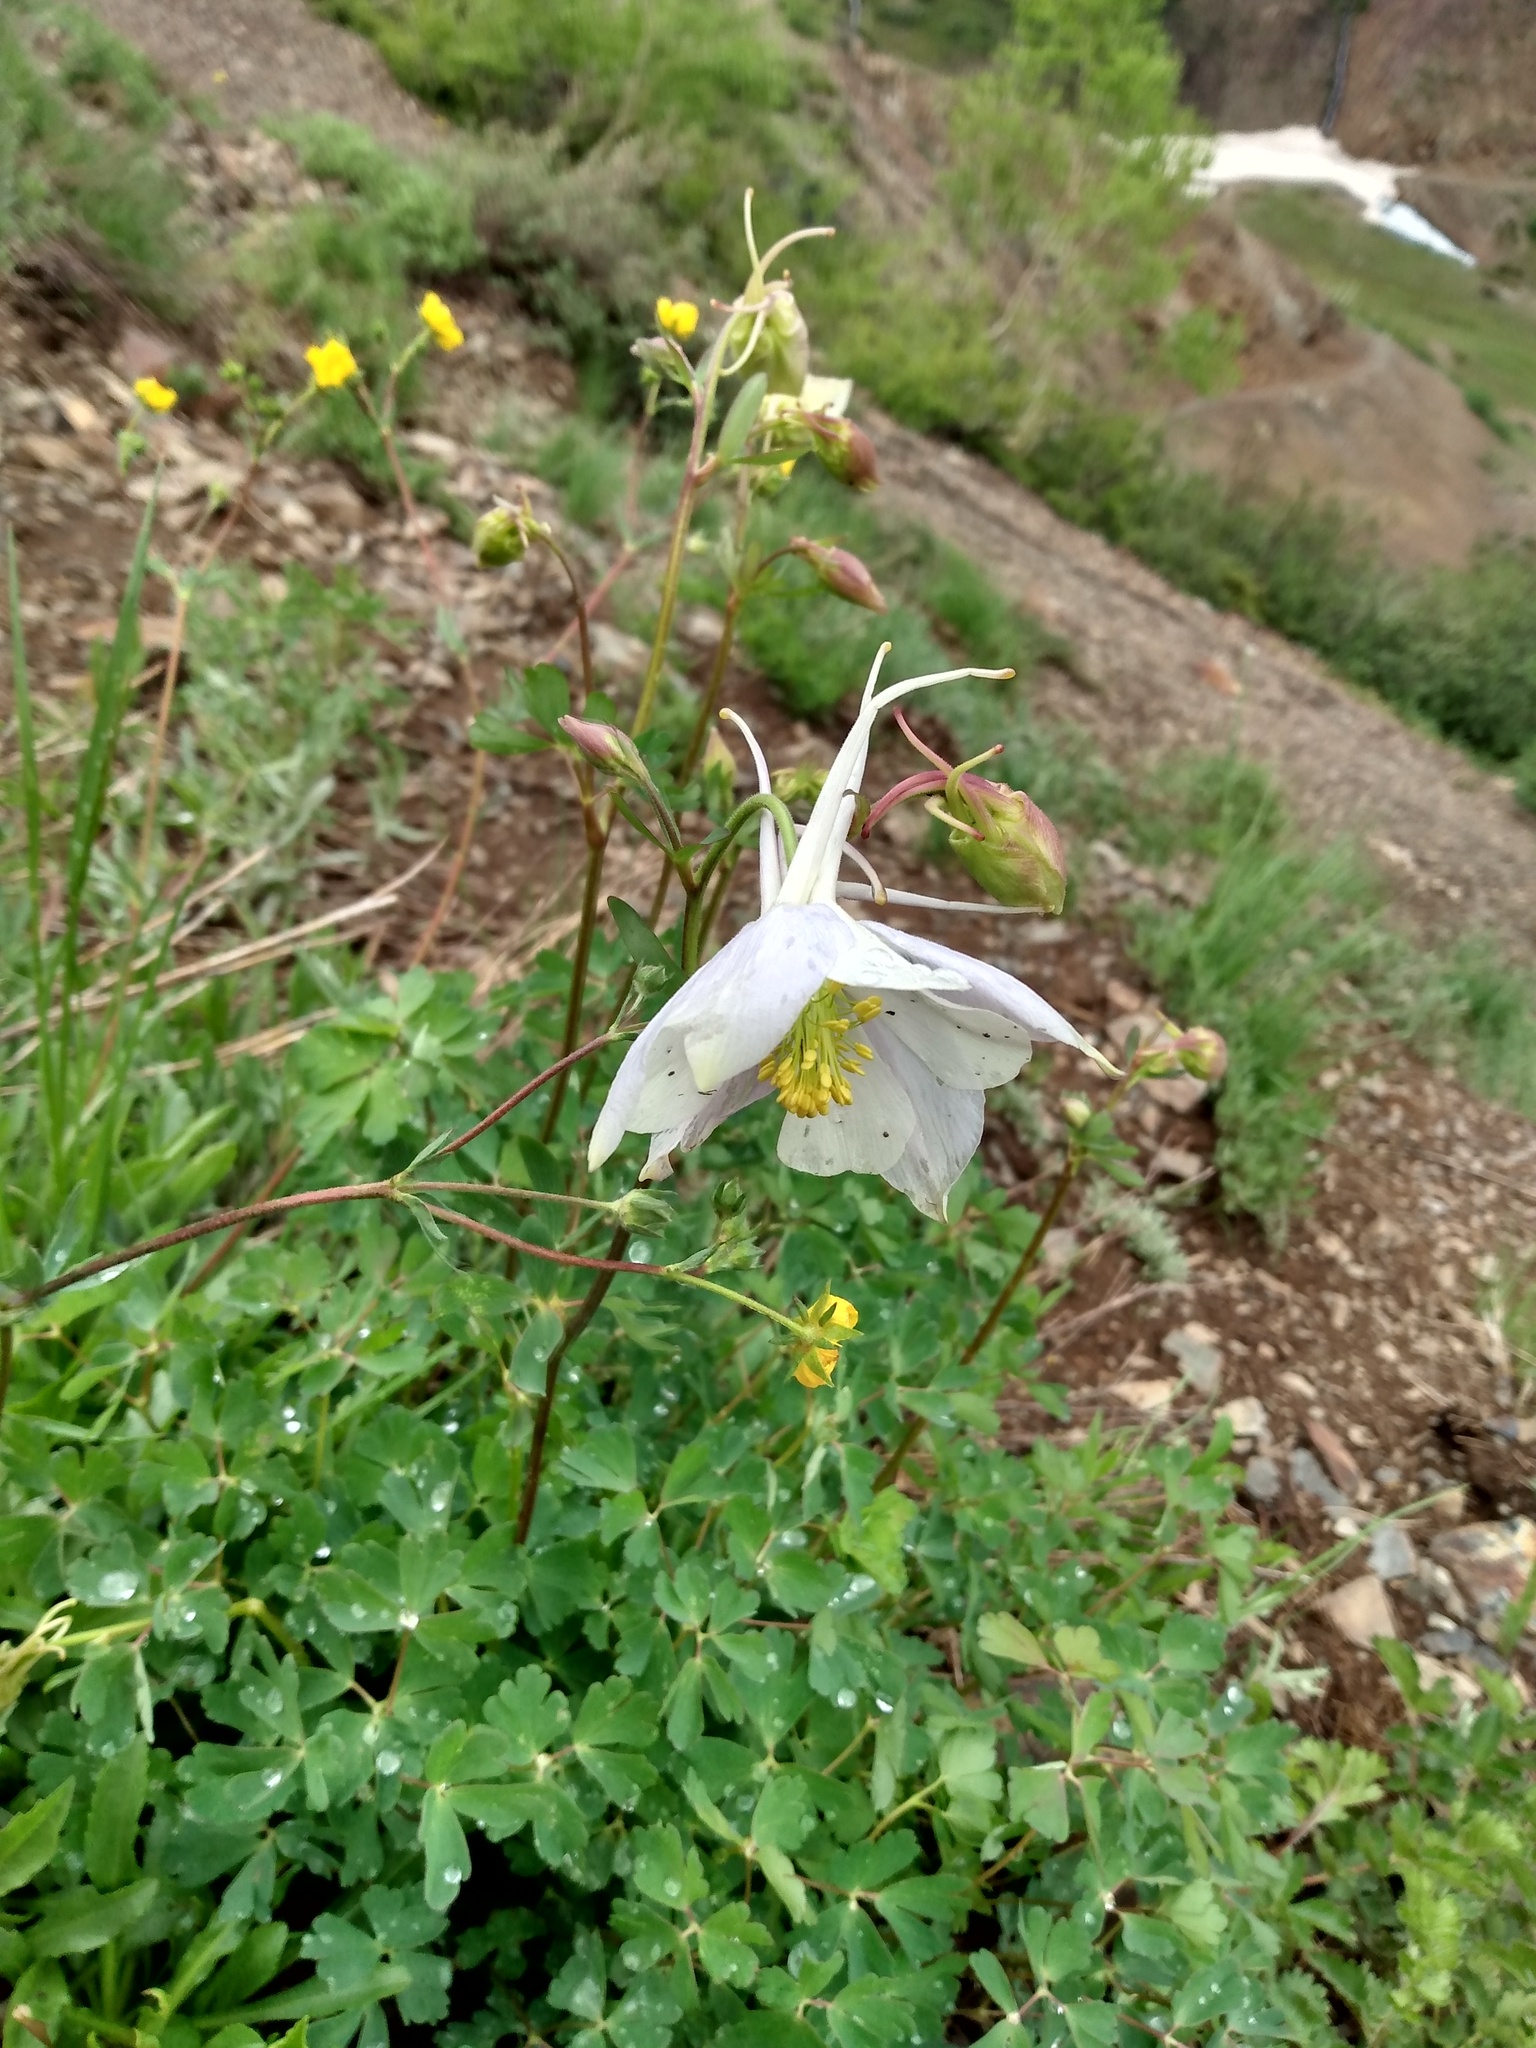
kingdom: Plantae
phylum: Tracheophyta
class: Magnoliopsida
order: Ranunculales
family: Ranunculaceae
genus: Aquilegia
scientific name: Aquilegia coerulea
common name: Rocky mountain columbine
